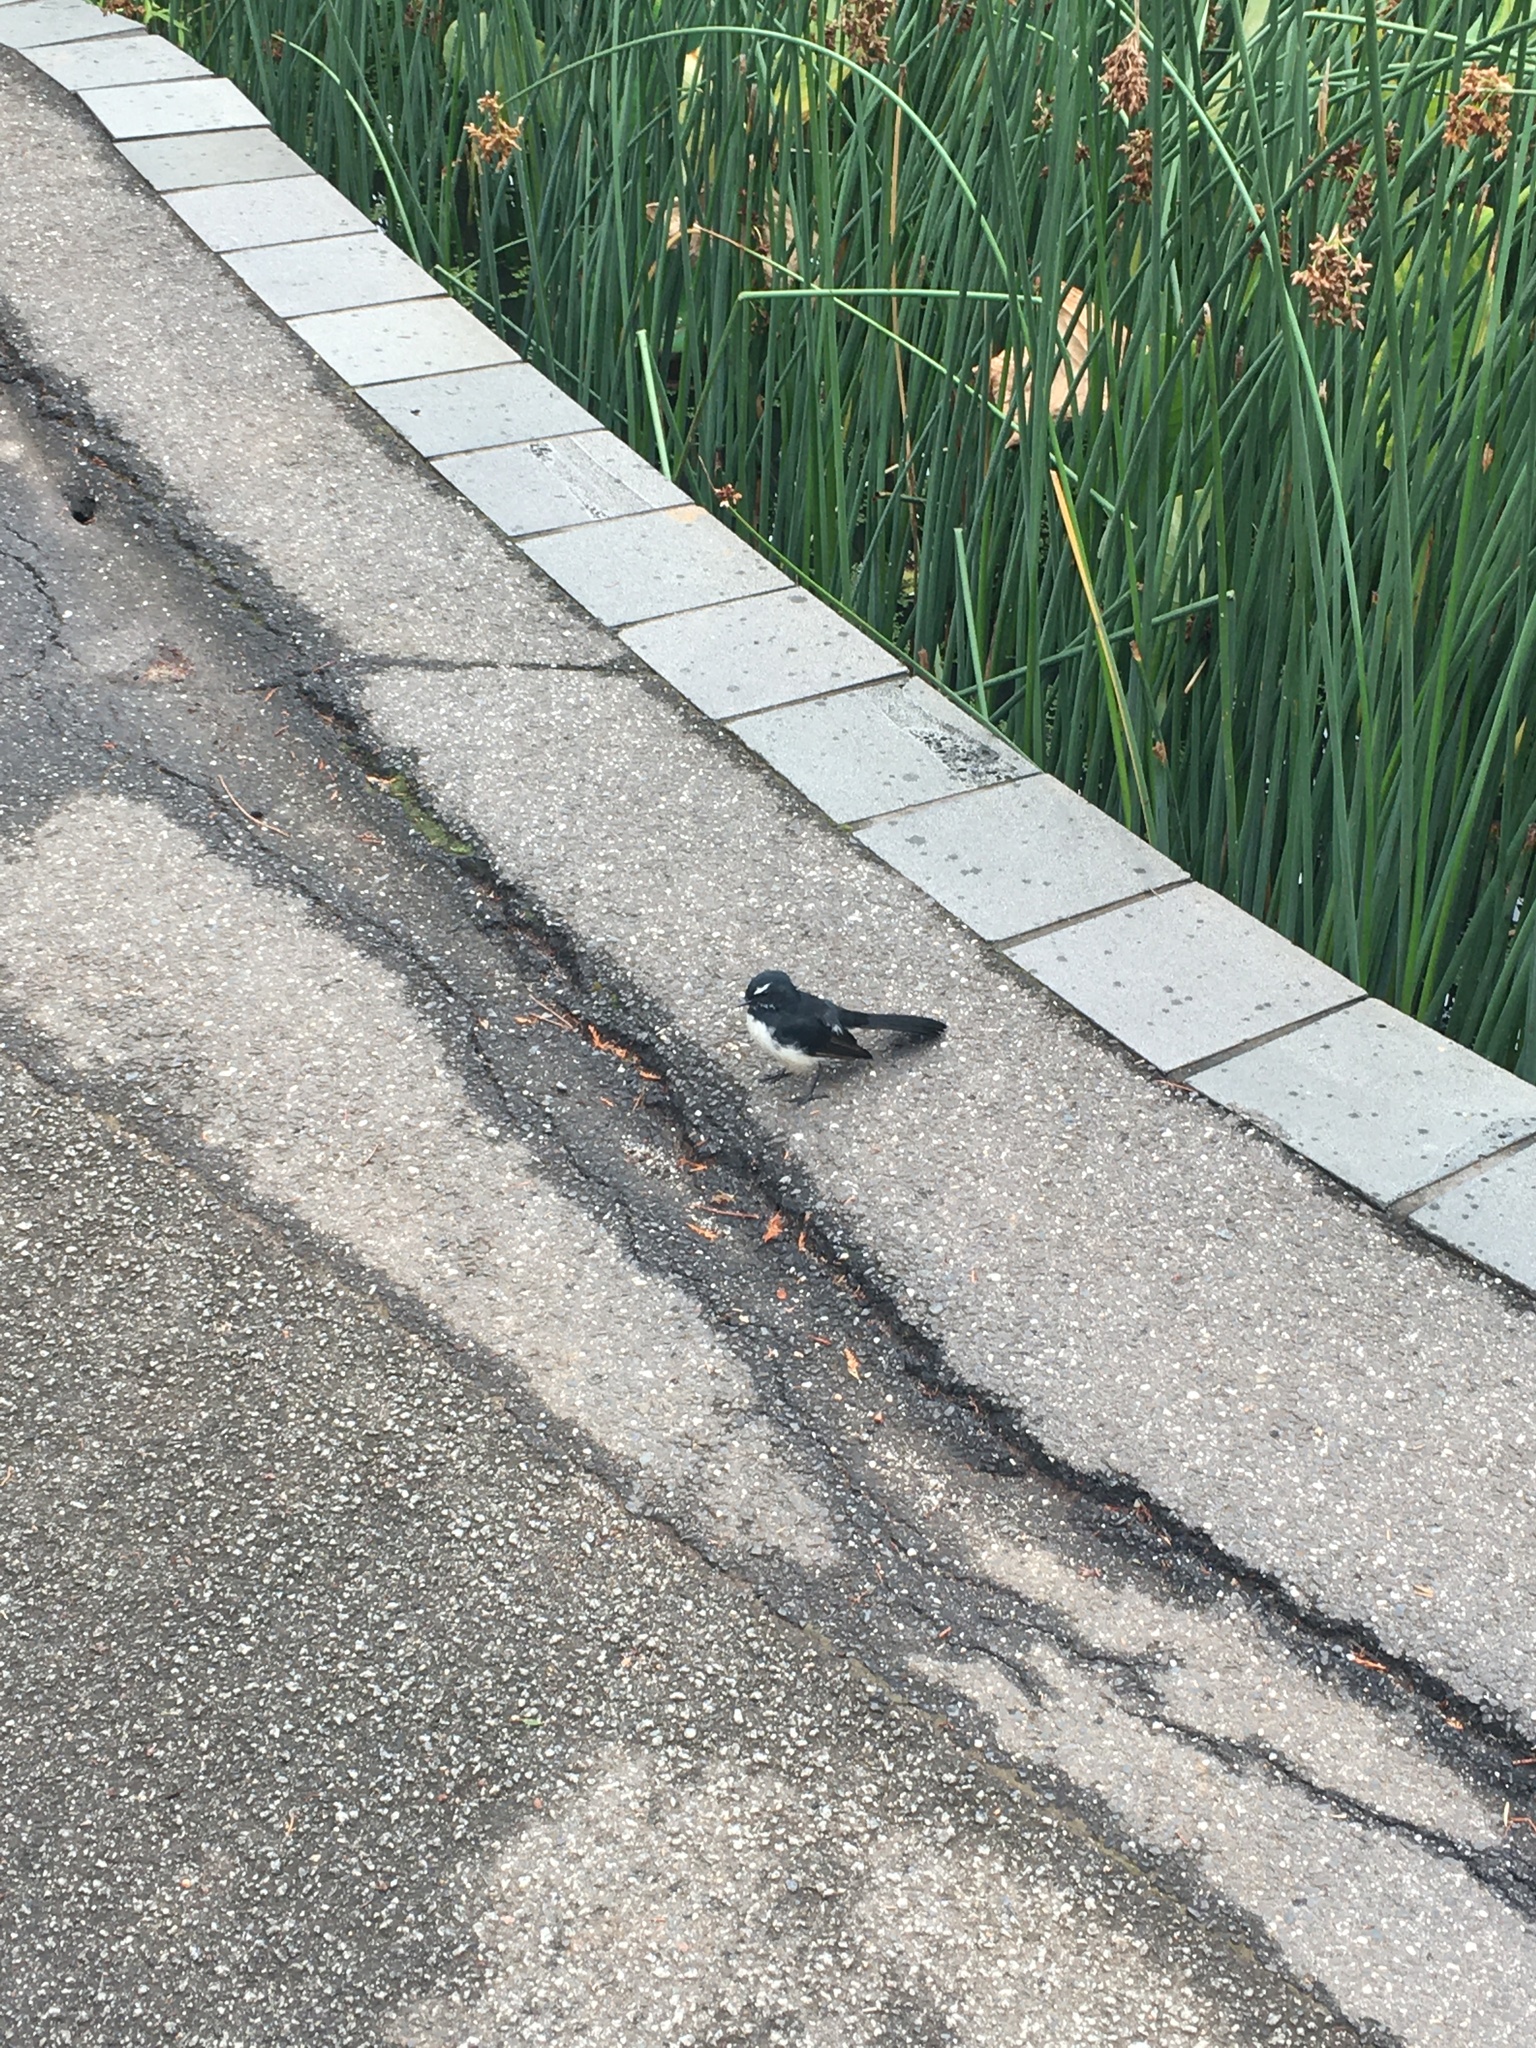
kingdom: Animalia
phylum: Chordata
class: Aves
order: Passeriformes
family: Rhipiduridae
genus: Rhipidura
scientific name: Rhipidura leucophrys
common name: Willie wagtail
